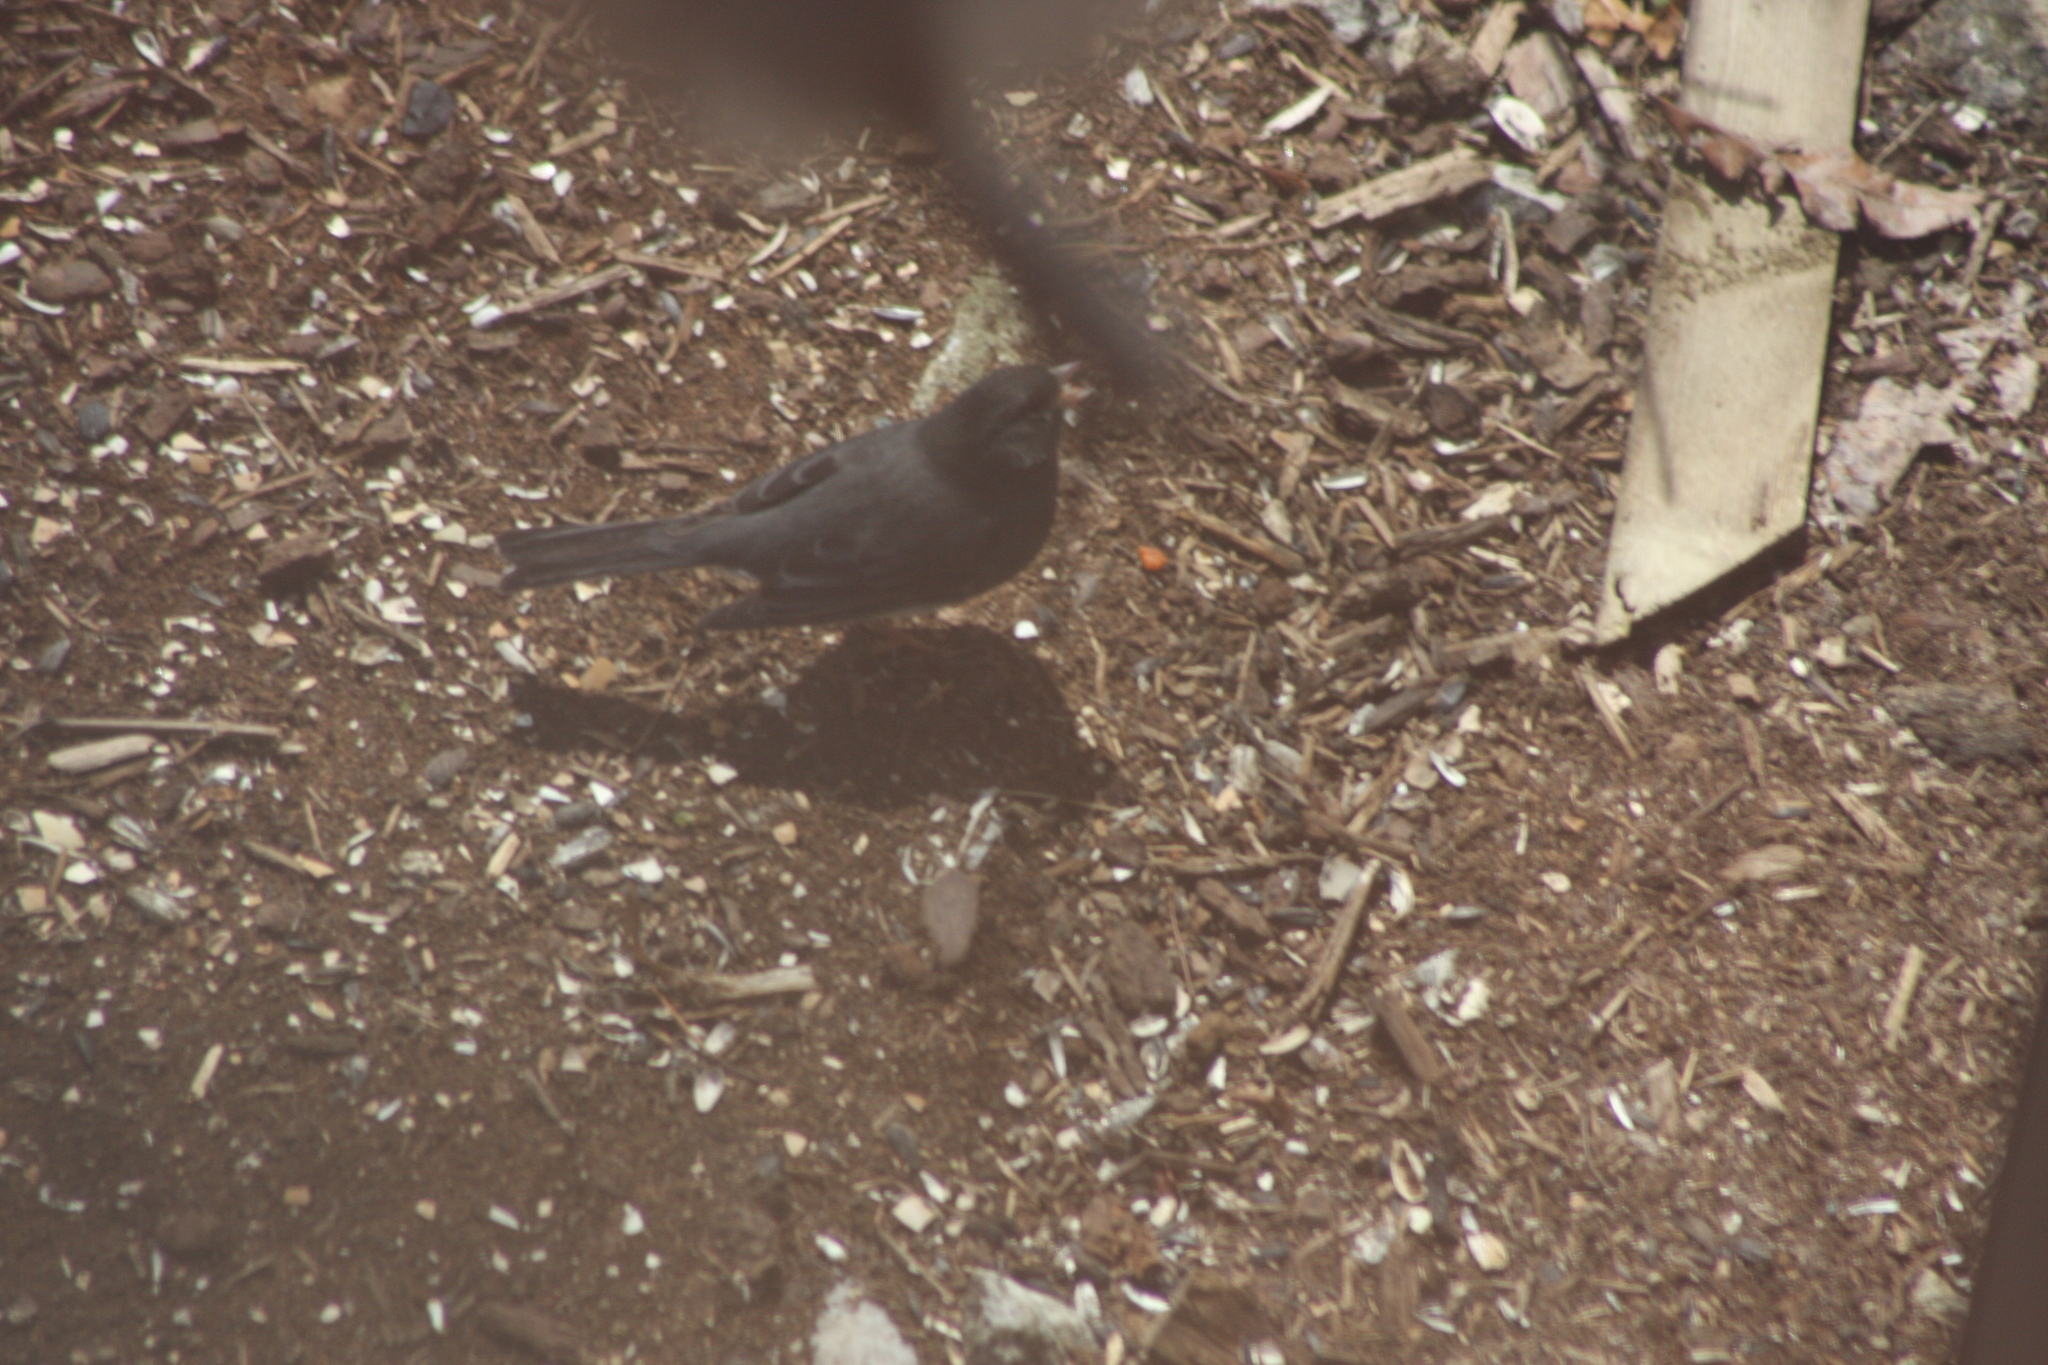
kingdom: Animalia
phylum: Chordata
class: Aves
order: Passeriformes
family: Passerellidae
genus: Junco
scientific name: Junco hyemalis
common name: Dark-eyed junco
